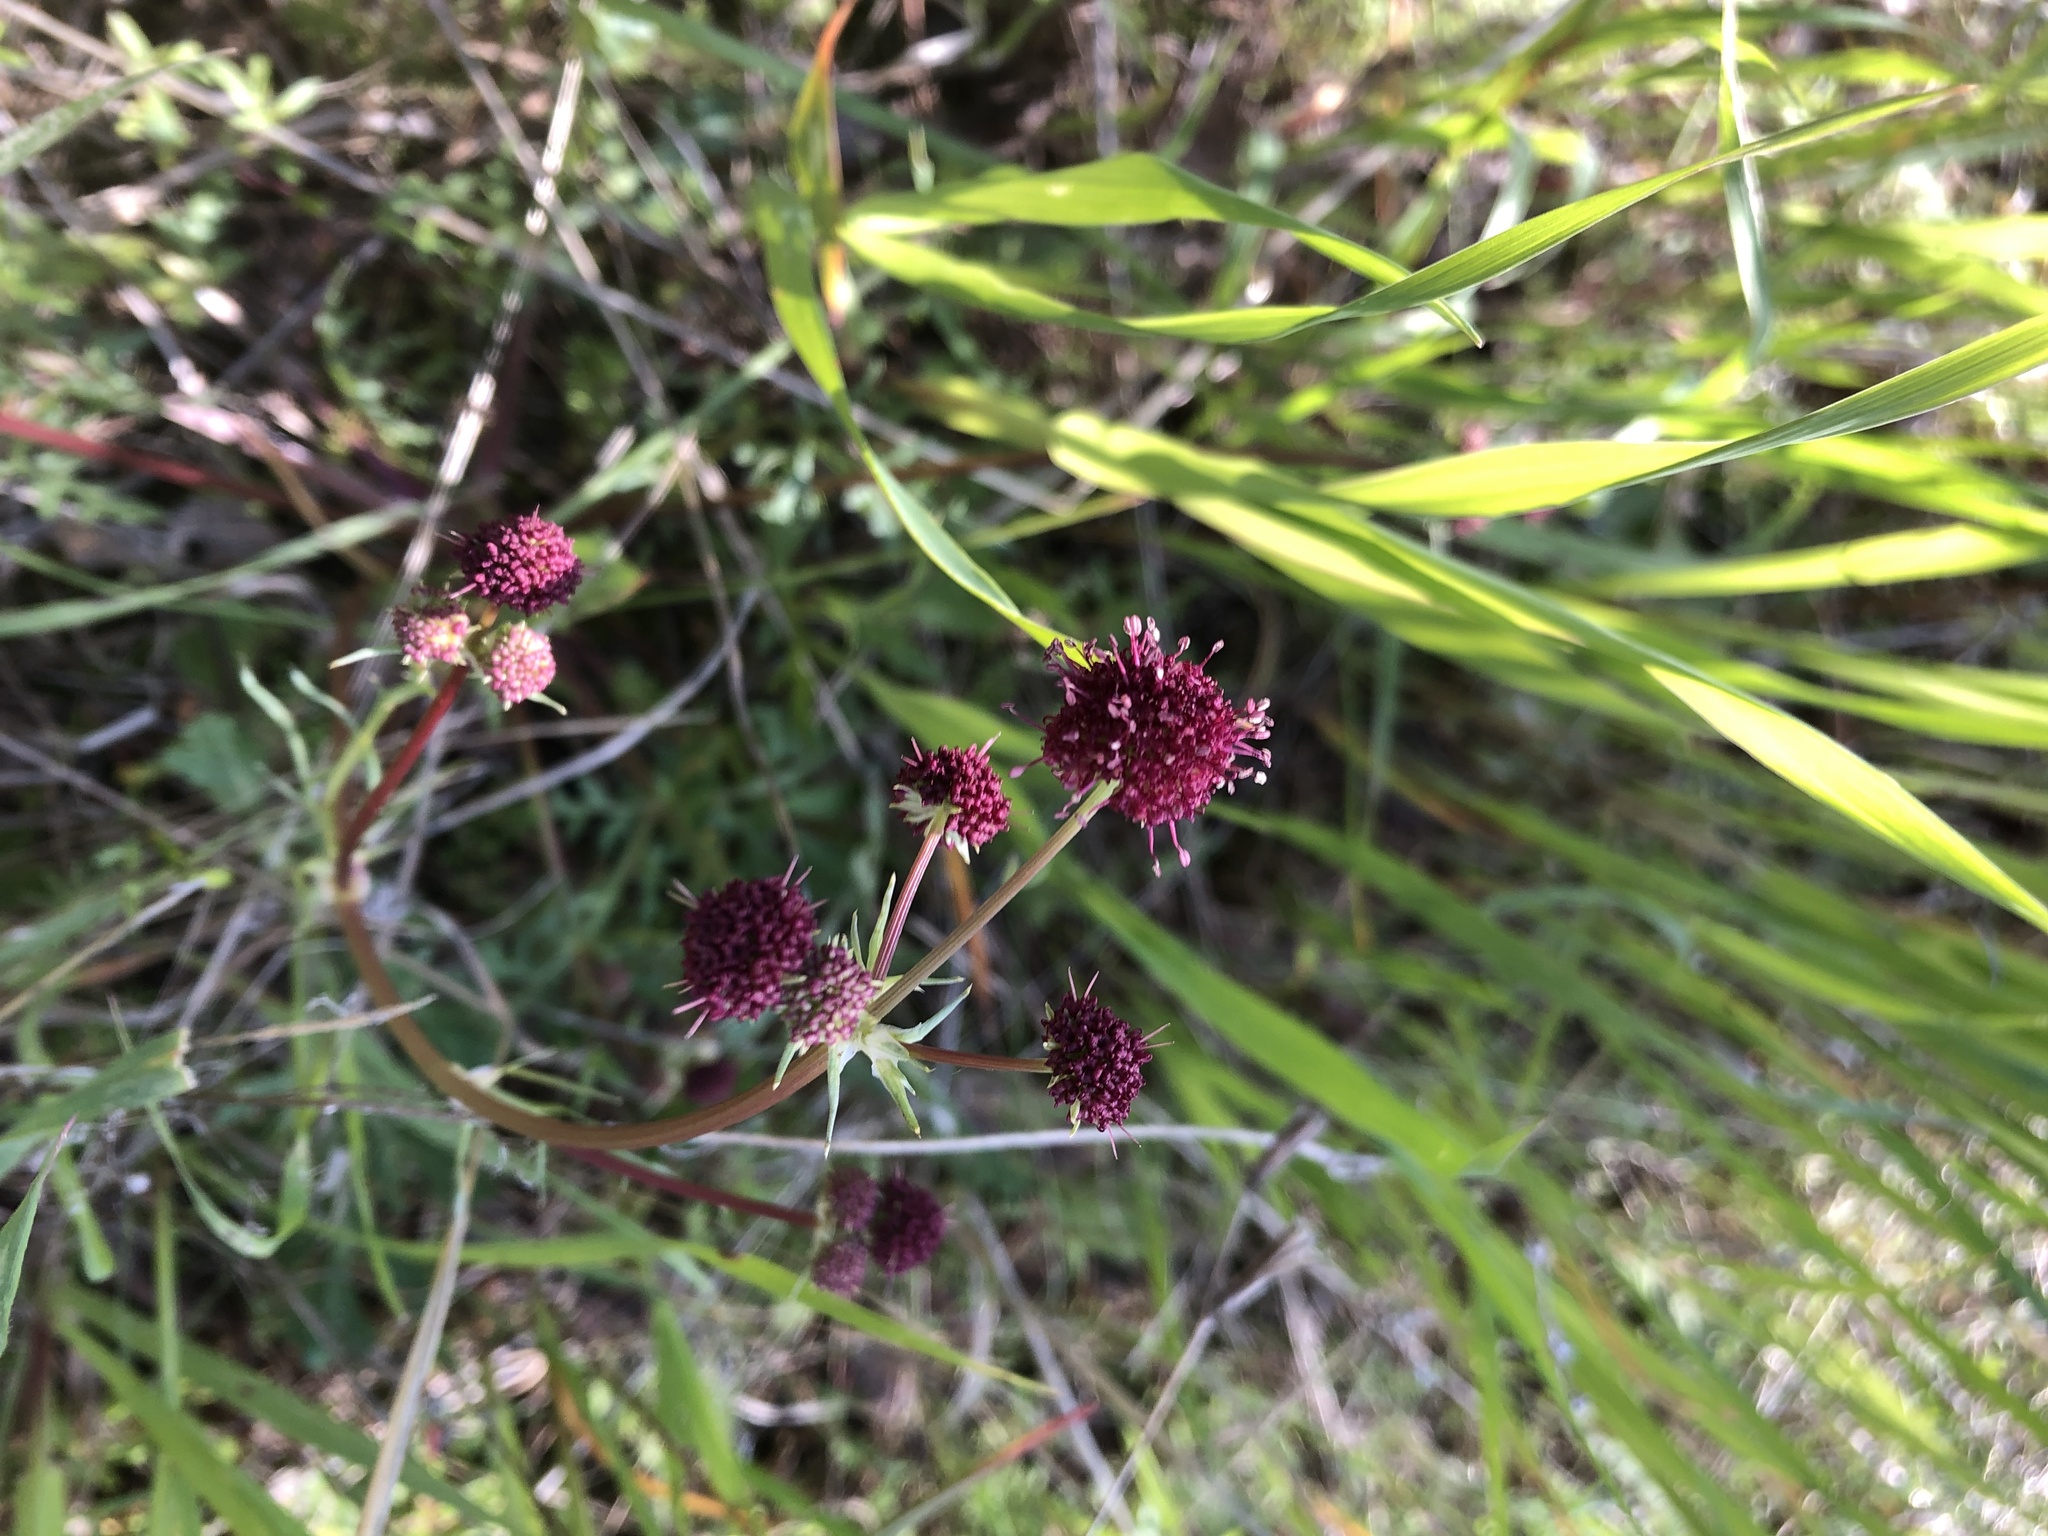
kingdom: Plantae
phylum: Tracheophyta
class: Magnoliopsida
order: Apiales
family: Apiaceae
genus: Sanicula
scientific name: Sanicula bipinnatifida
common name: Shoe-buttons
